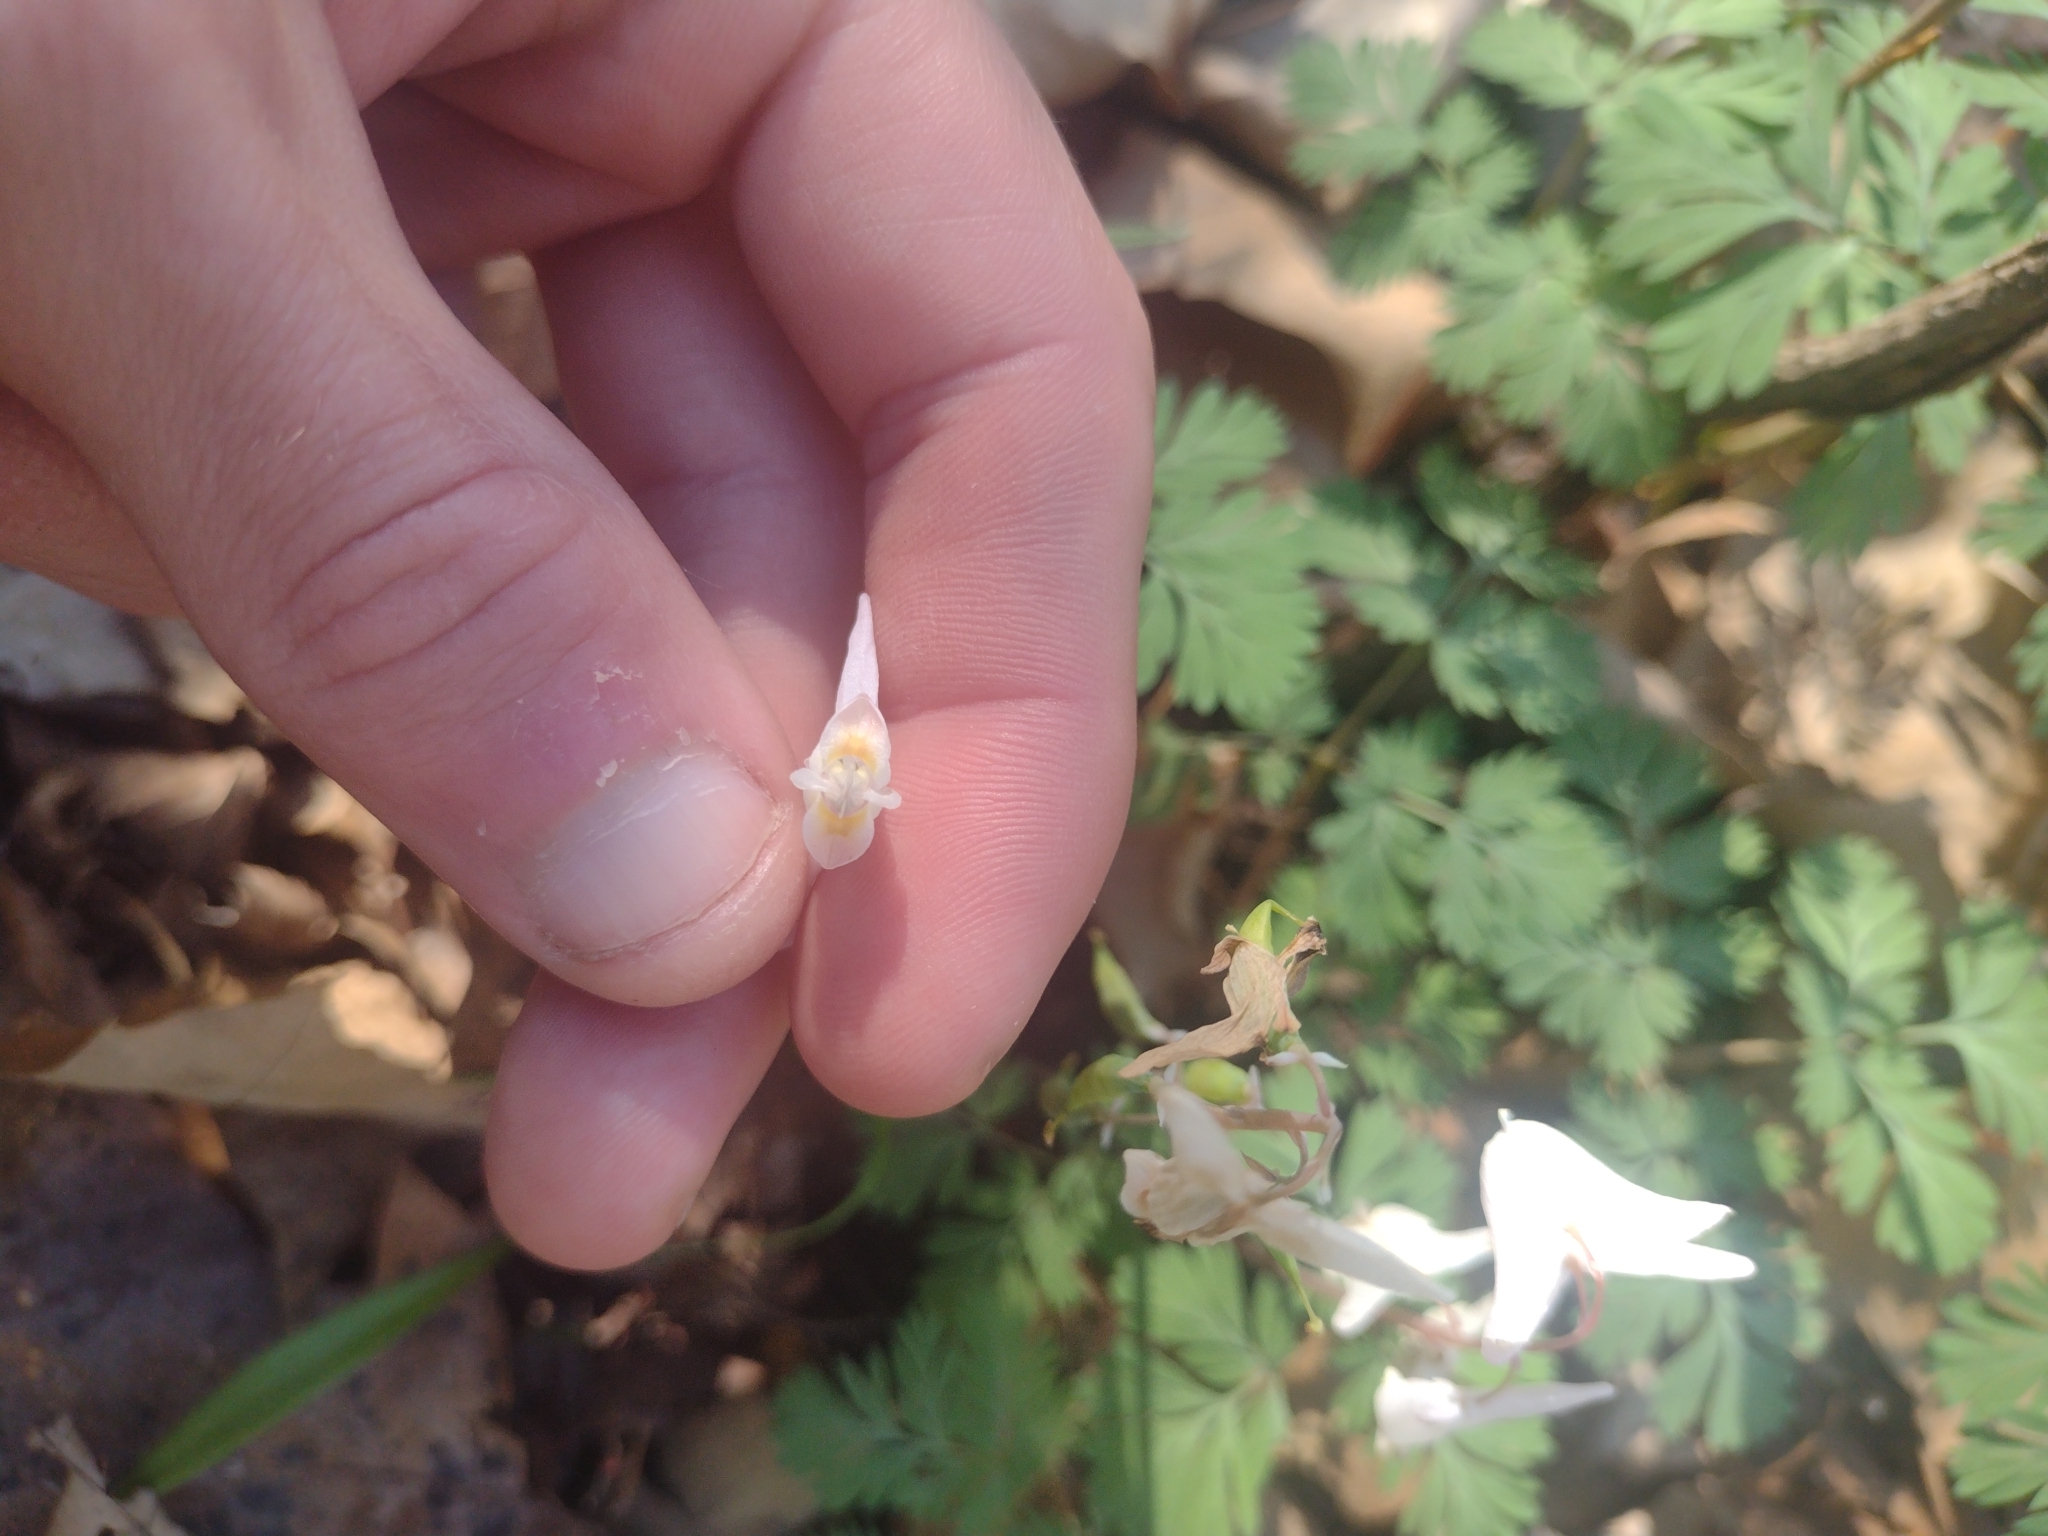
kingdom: Plantae
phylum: Tracheophyta
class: Magnoliopsida
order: Ranunculales
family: Papaveraceae
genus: Dicentra
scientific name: Dicentra cucullaria
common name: Dutchman's breeches
